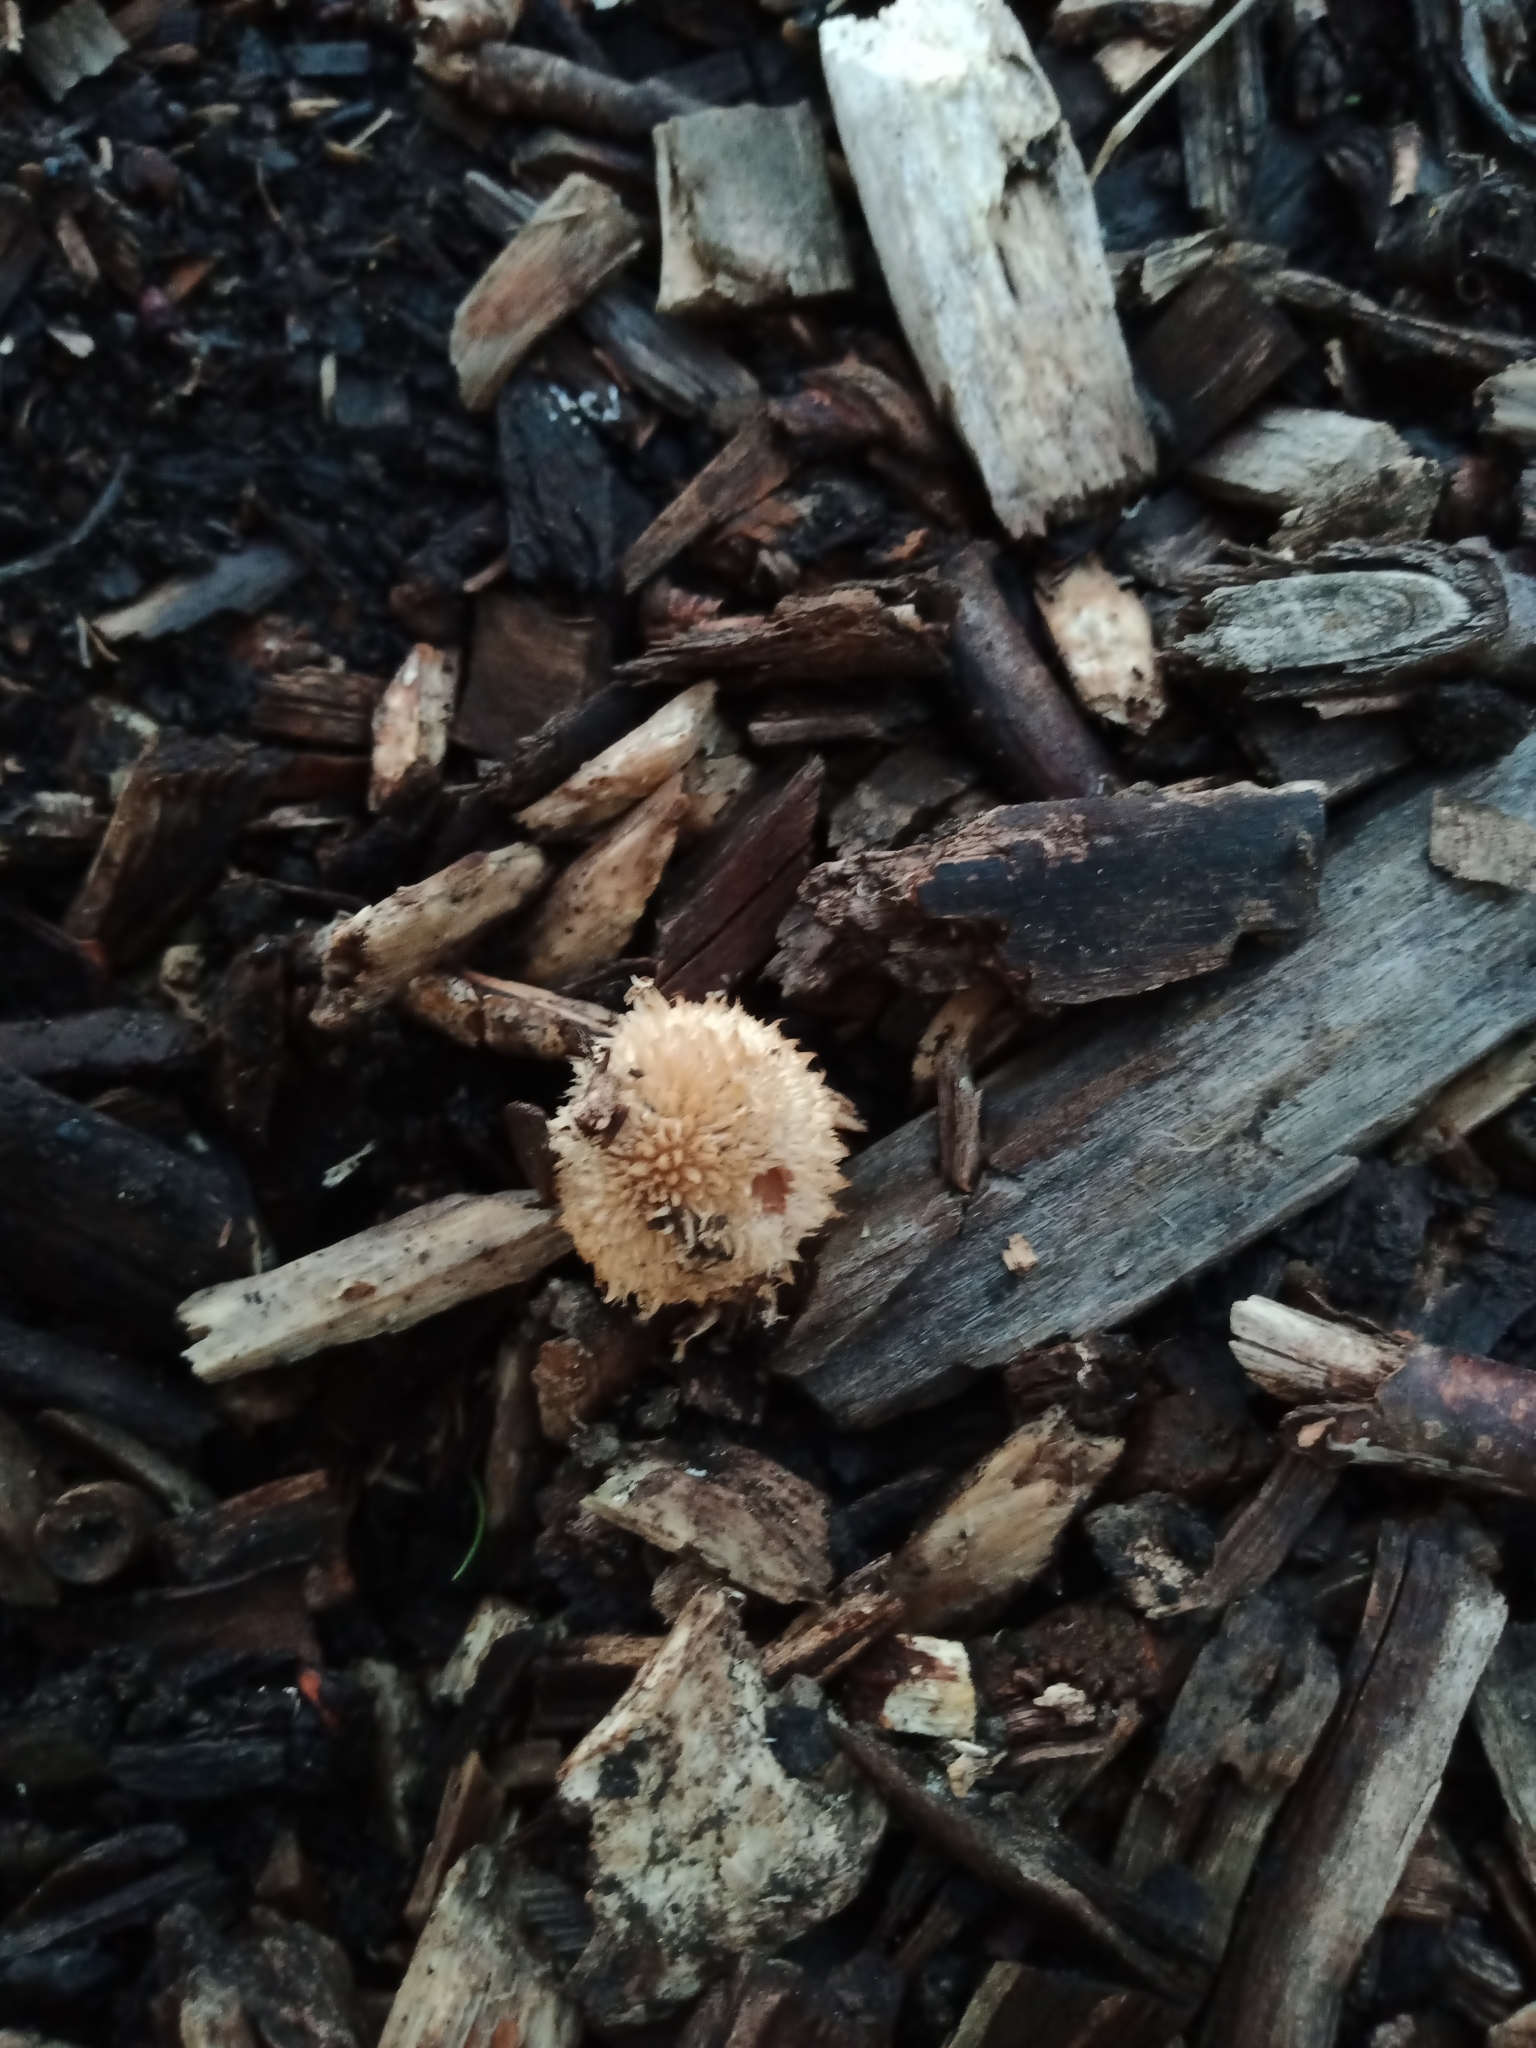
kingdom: Fungi
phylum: Basidiomycota
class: Agaricomycetes
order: Agaricales
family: Psathyrellaceae
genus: Psathyrella
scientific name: Psathyrella asperospora
